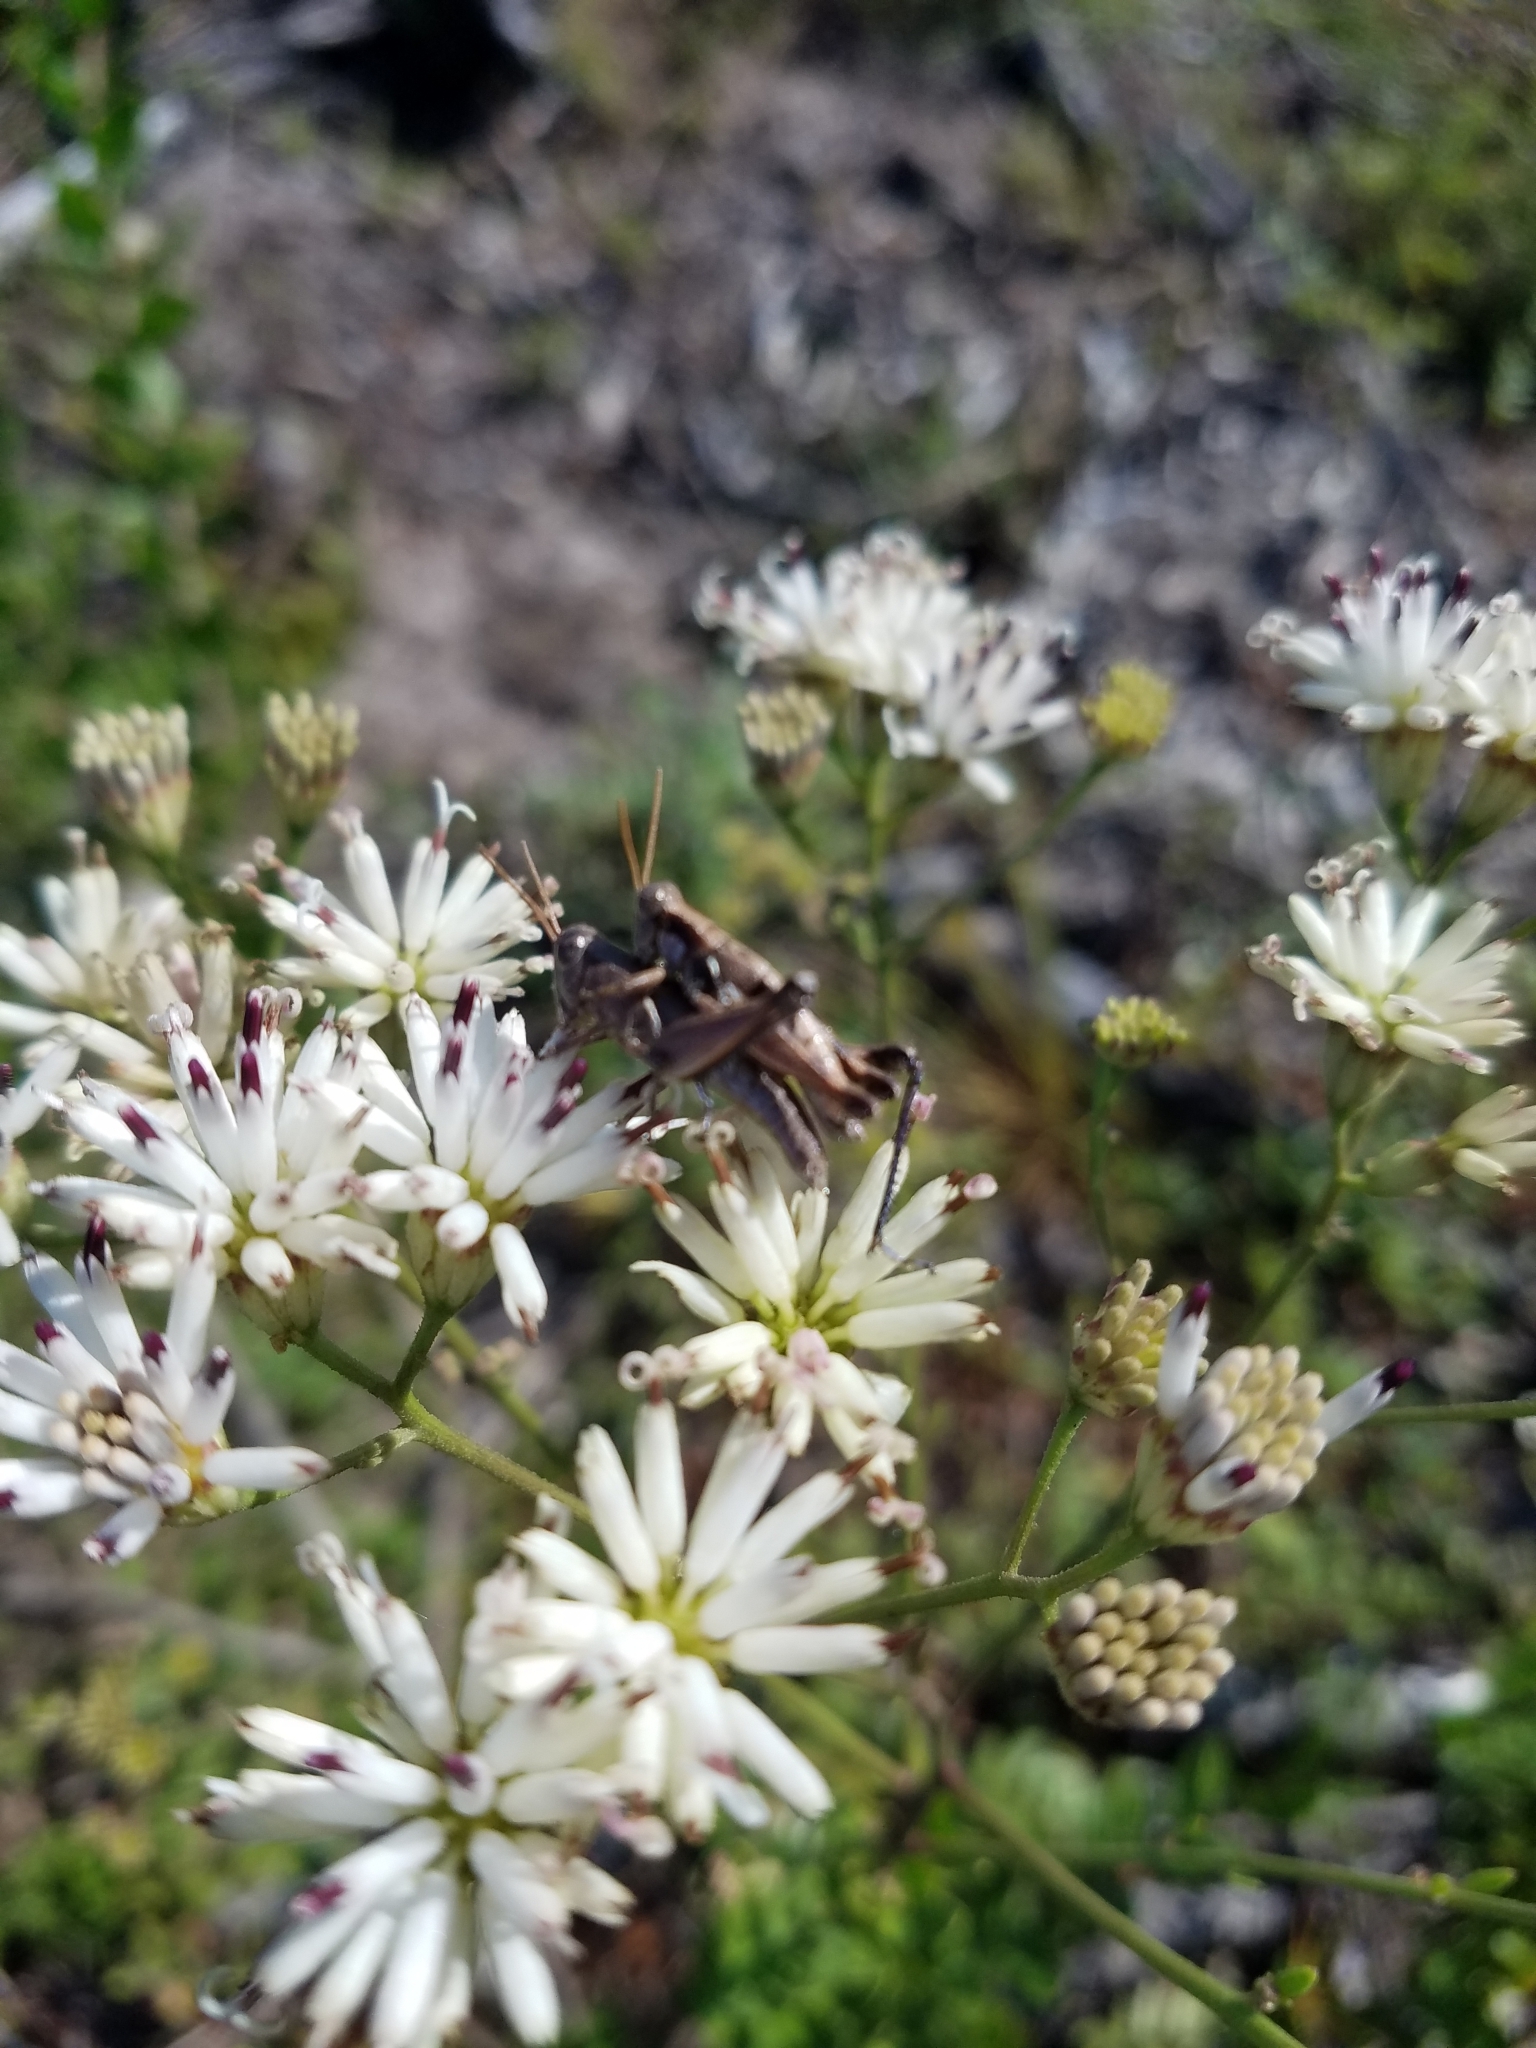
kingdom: Plantae
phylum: Tracheophyta
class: Magnoliopsida
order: Asterales
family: Asteraceae
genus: Palafoxia
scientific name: Palafoxia feayi
